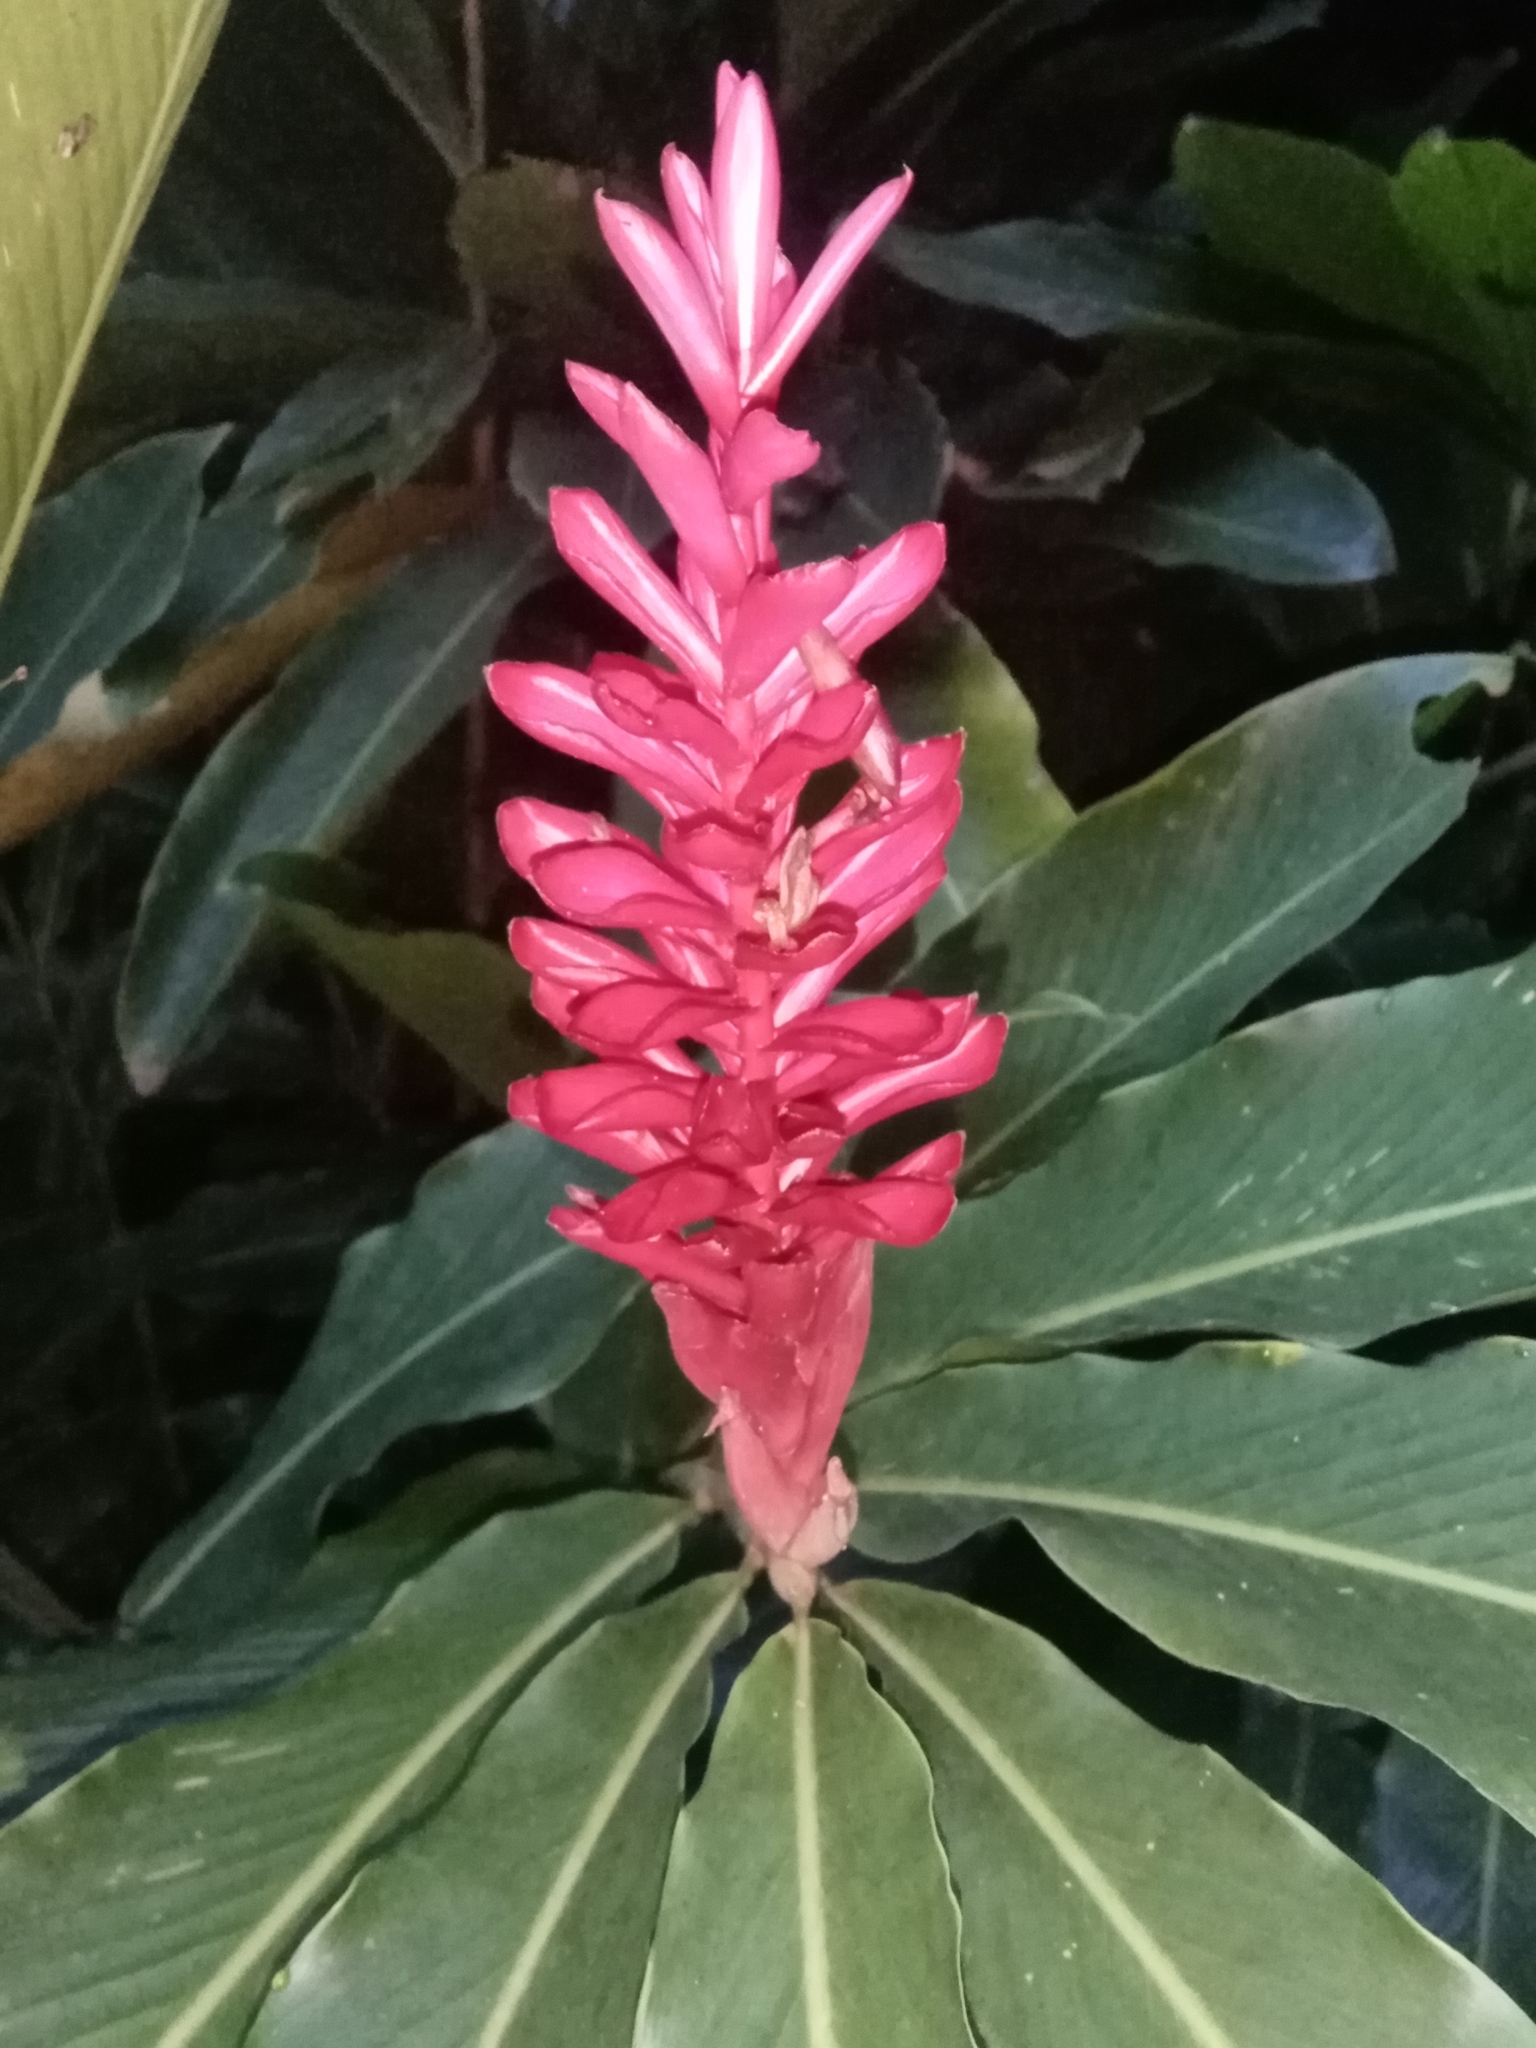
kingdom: Plantae
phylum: Tracheophyta
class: Liliopsida
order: Zingiberales
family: Zingiberaceae
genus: Alpinia
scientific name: Alpinia purpurata
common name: Red ginger
